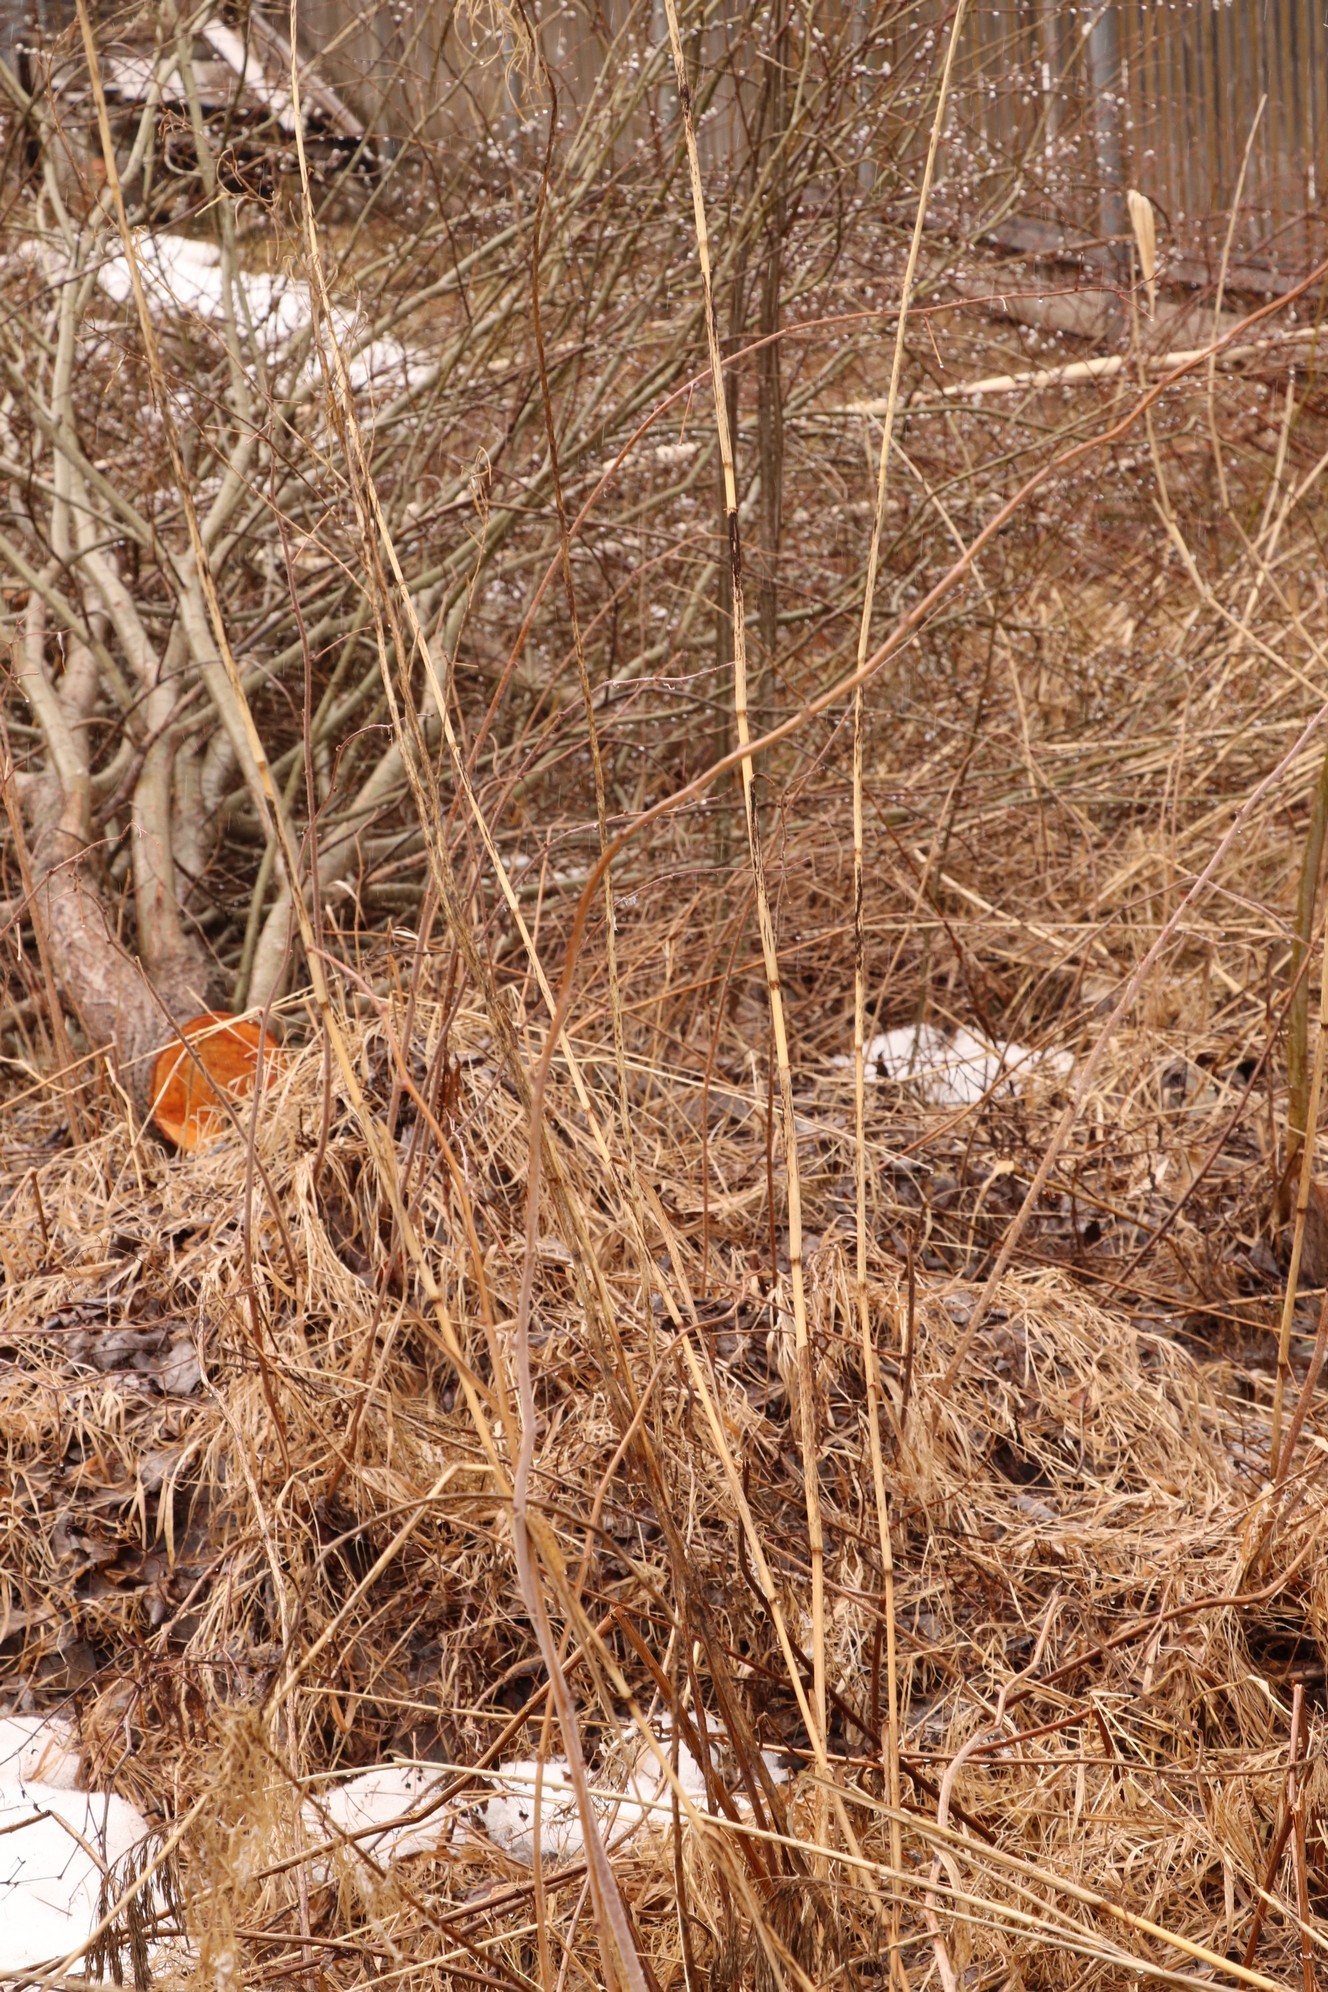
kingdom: Plantae
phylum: Tracheophyta
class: Liliopsida
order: Poales
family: Poaceae
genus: Phragmites
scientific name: Phragmites australis
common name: Common reed
